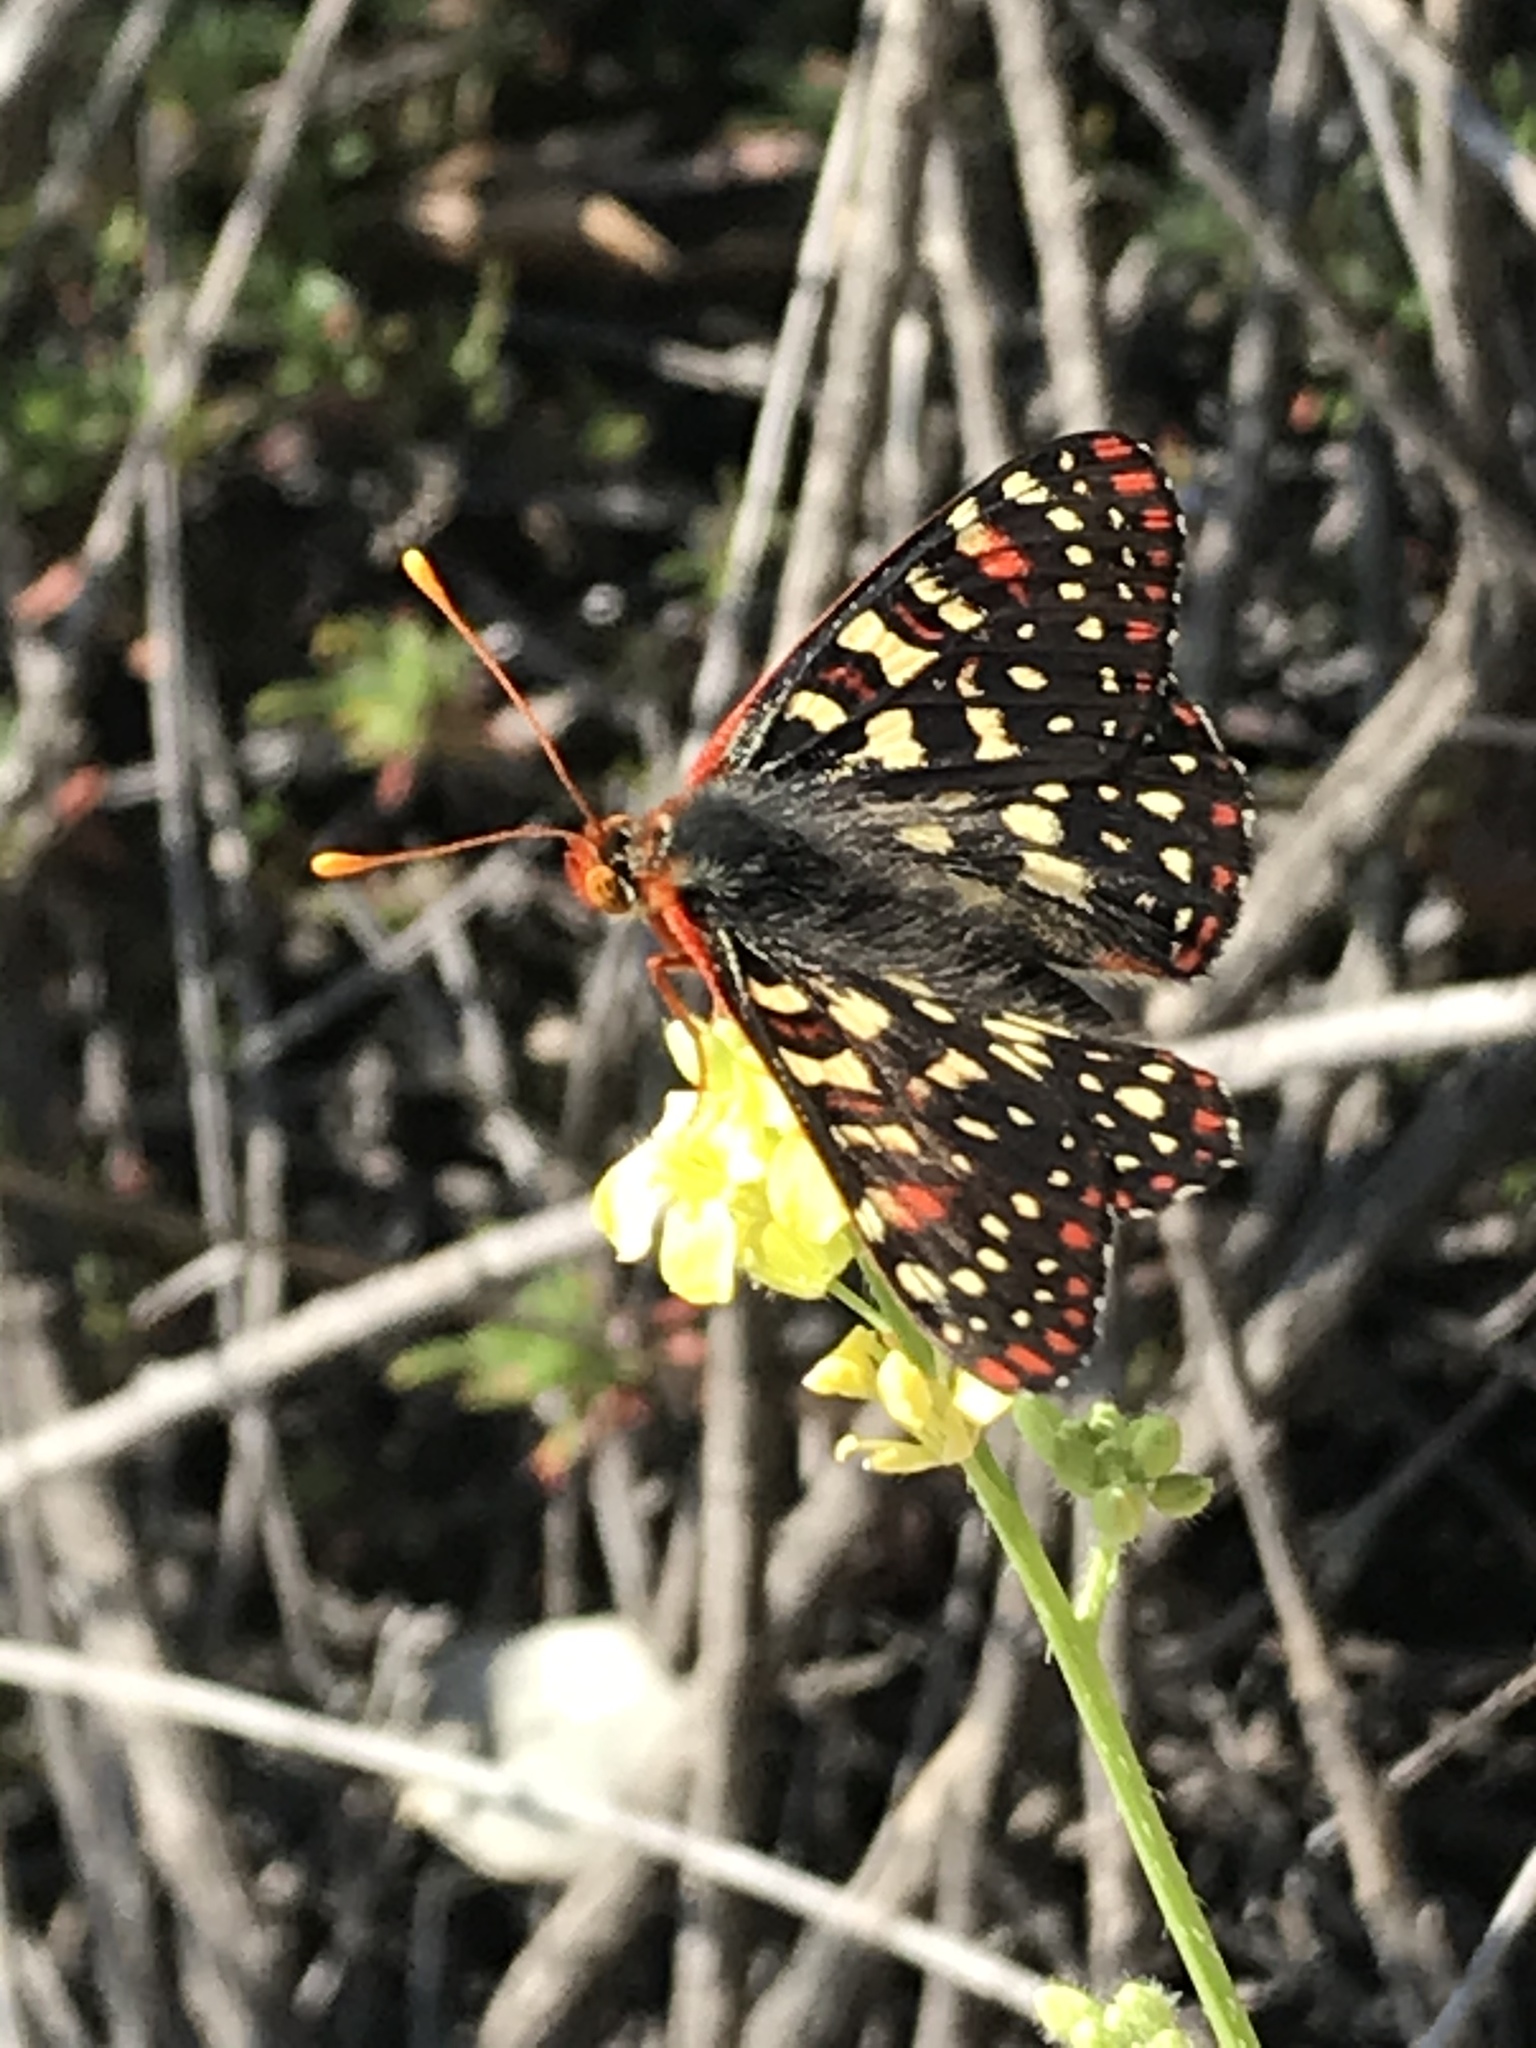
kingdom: Animalia
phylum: Arthropoda
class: Insecta
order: Lepidoptera
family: Nymphalidae
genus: Occidryas
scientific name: Occidryas chalcedona
